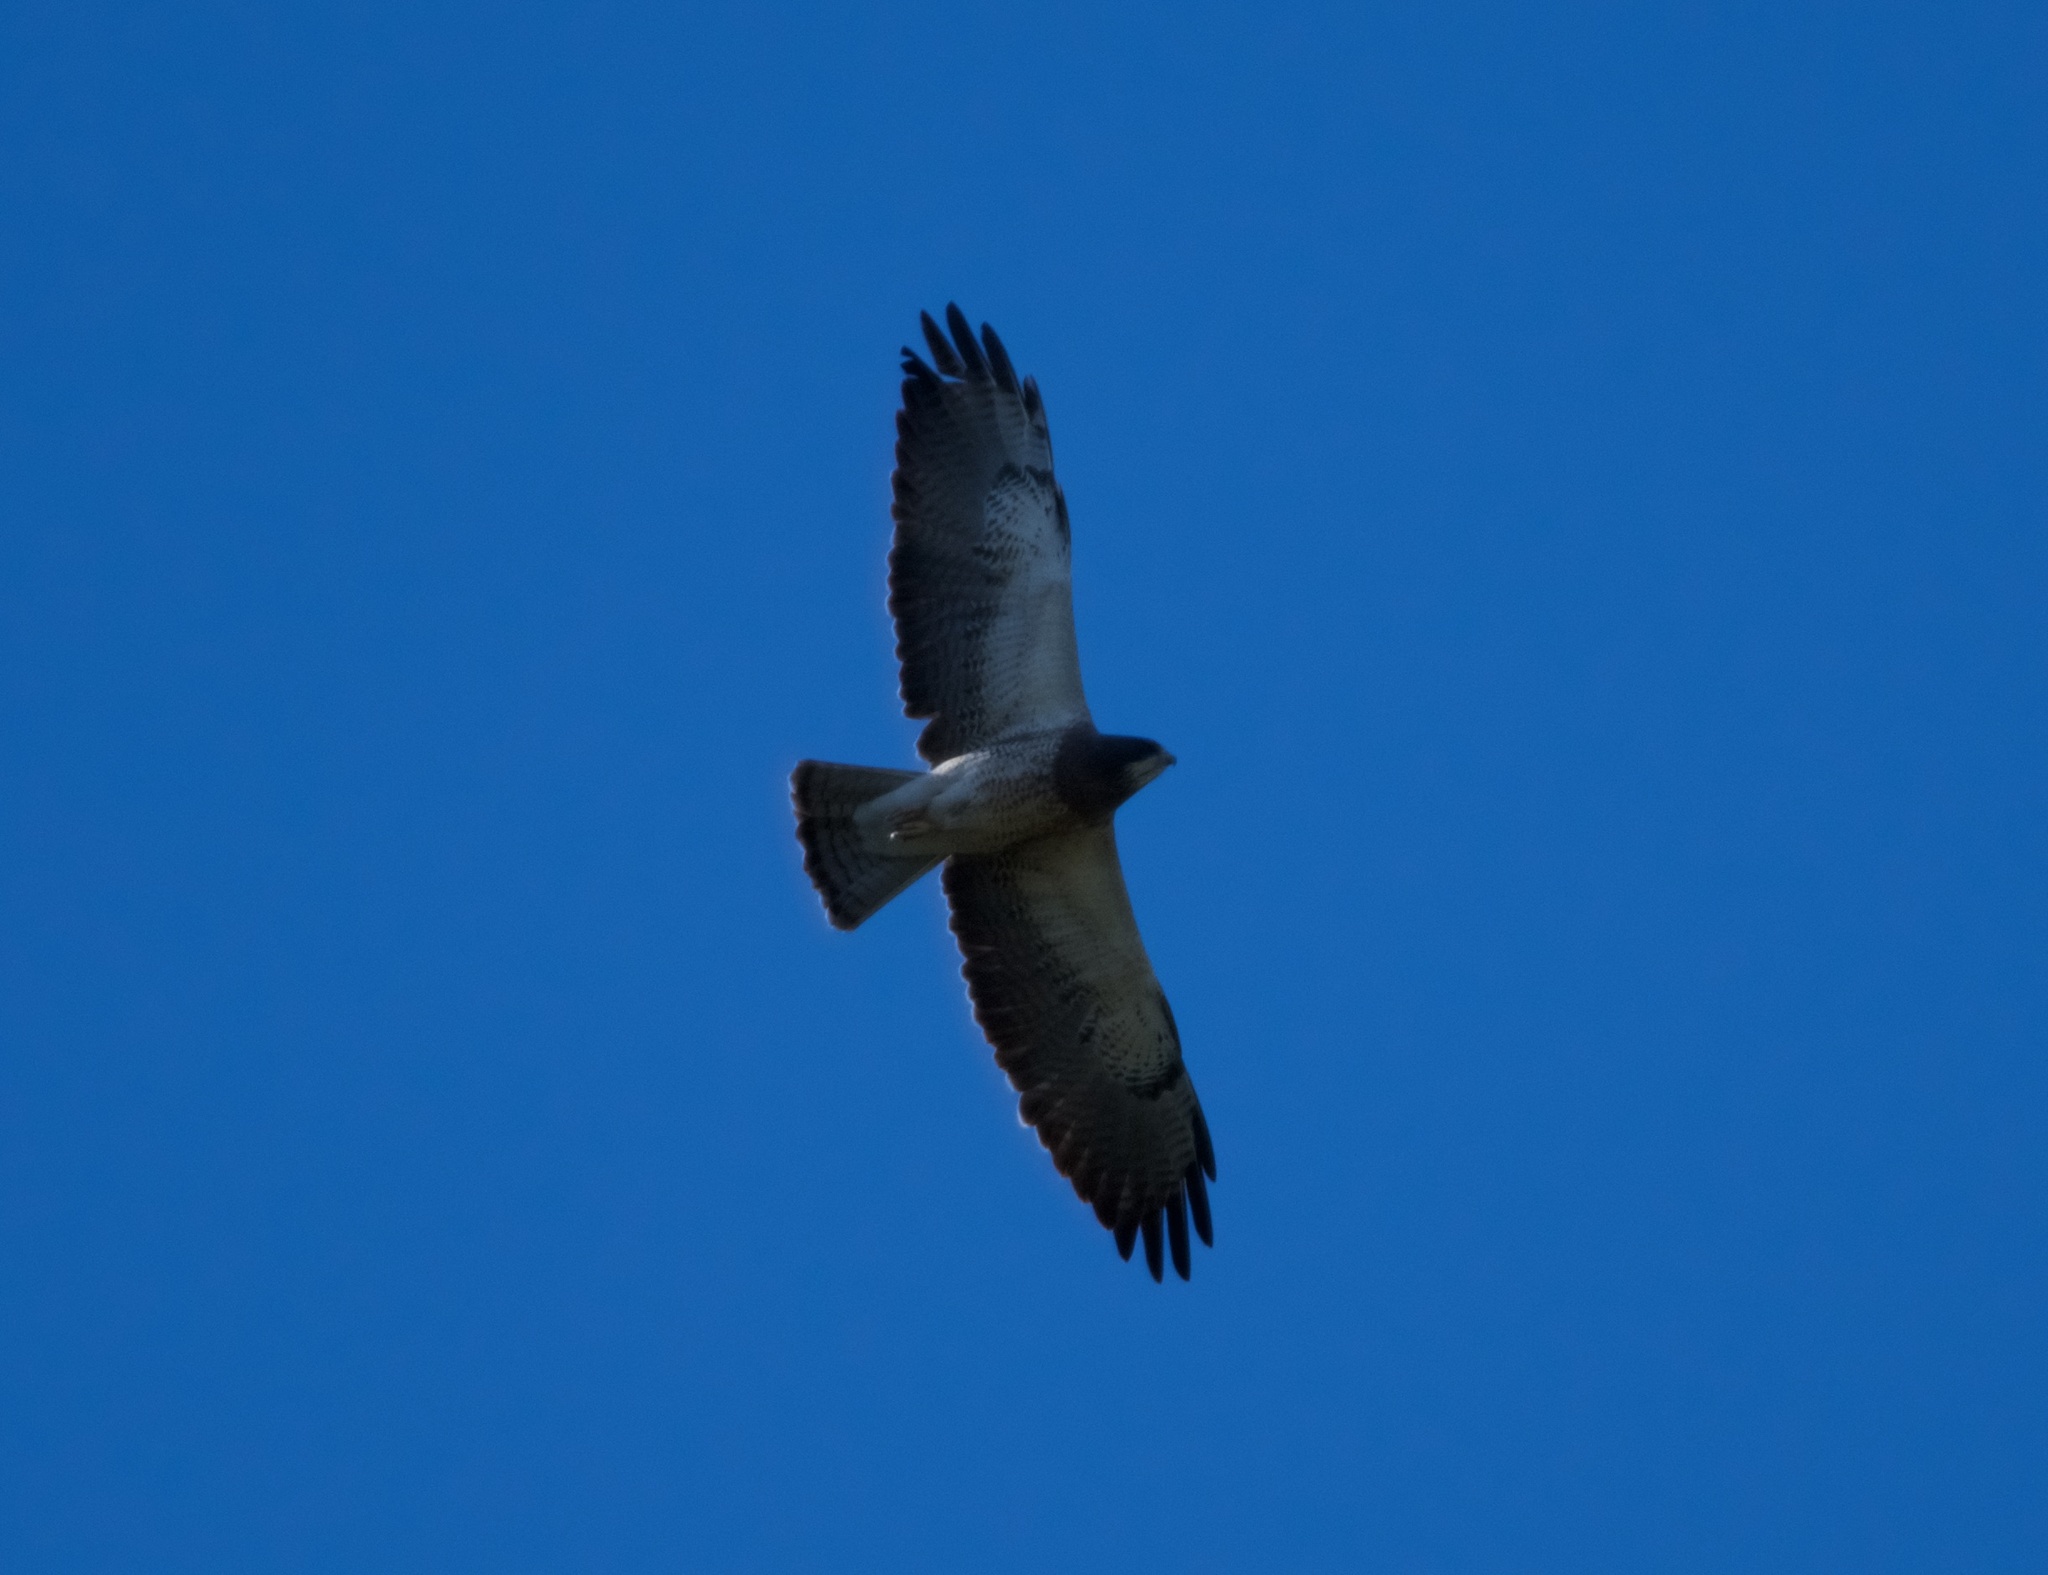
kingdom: Animalia
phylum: Chordata
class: Aves
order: Accipitriformes
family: Accipitridae
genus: Buteo
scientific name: Buteo swainsoni
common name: Swainson's hawk
